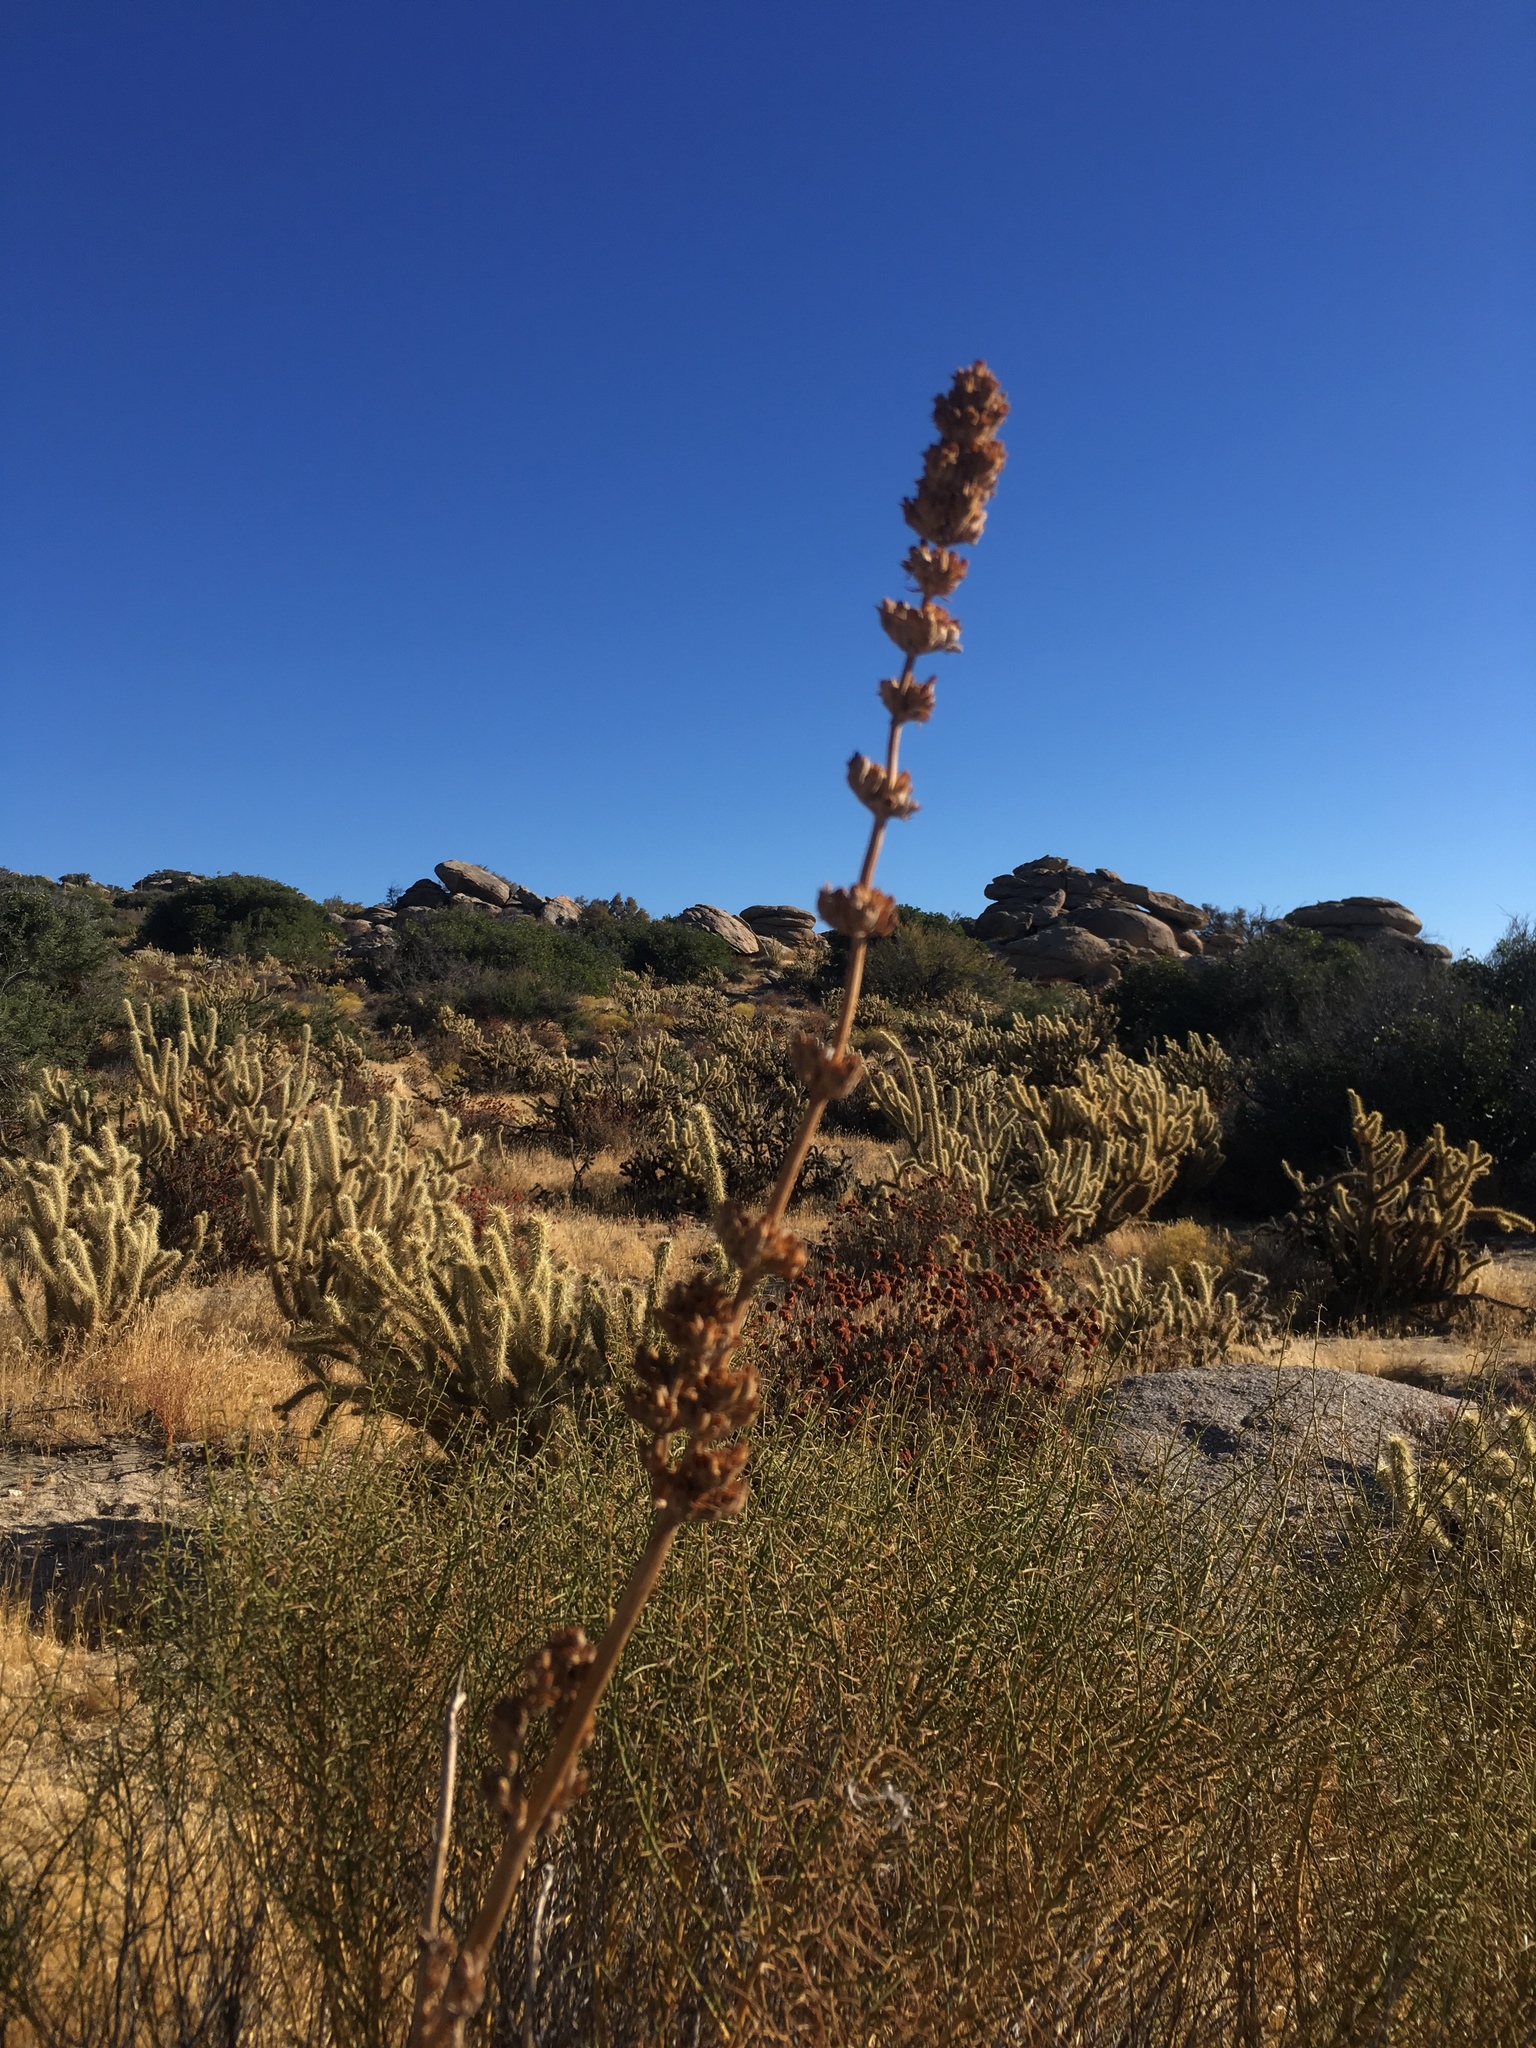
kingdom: Plantae
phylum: Tracheophyta
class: Magnoliopsida
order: Lamiales
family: Lamiaceae
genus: Salvia
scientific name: Salvia apiana
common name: White sage
